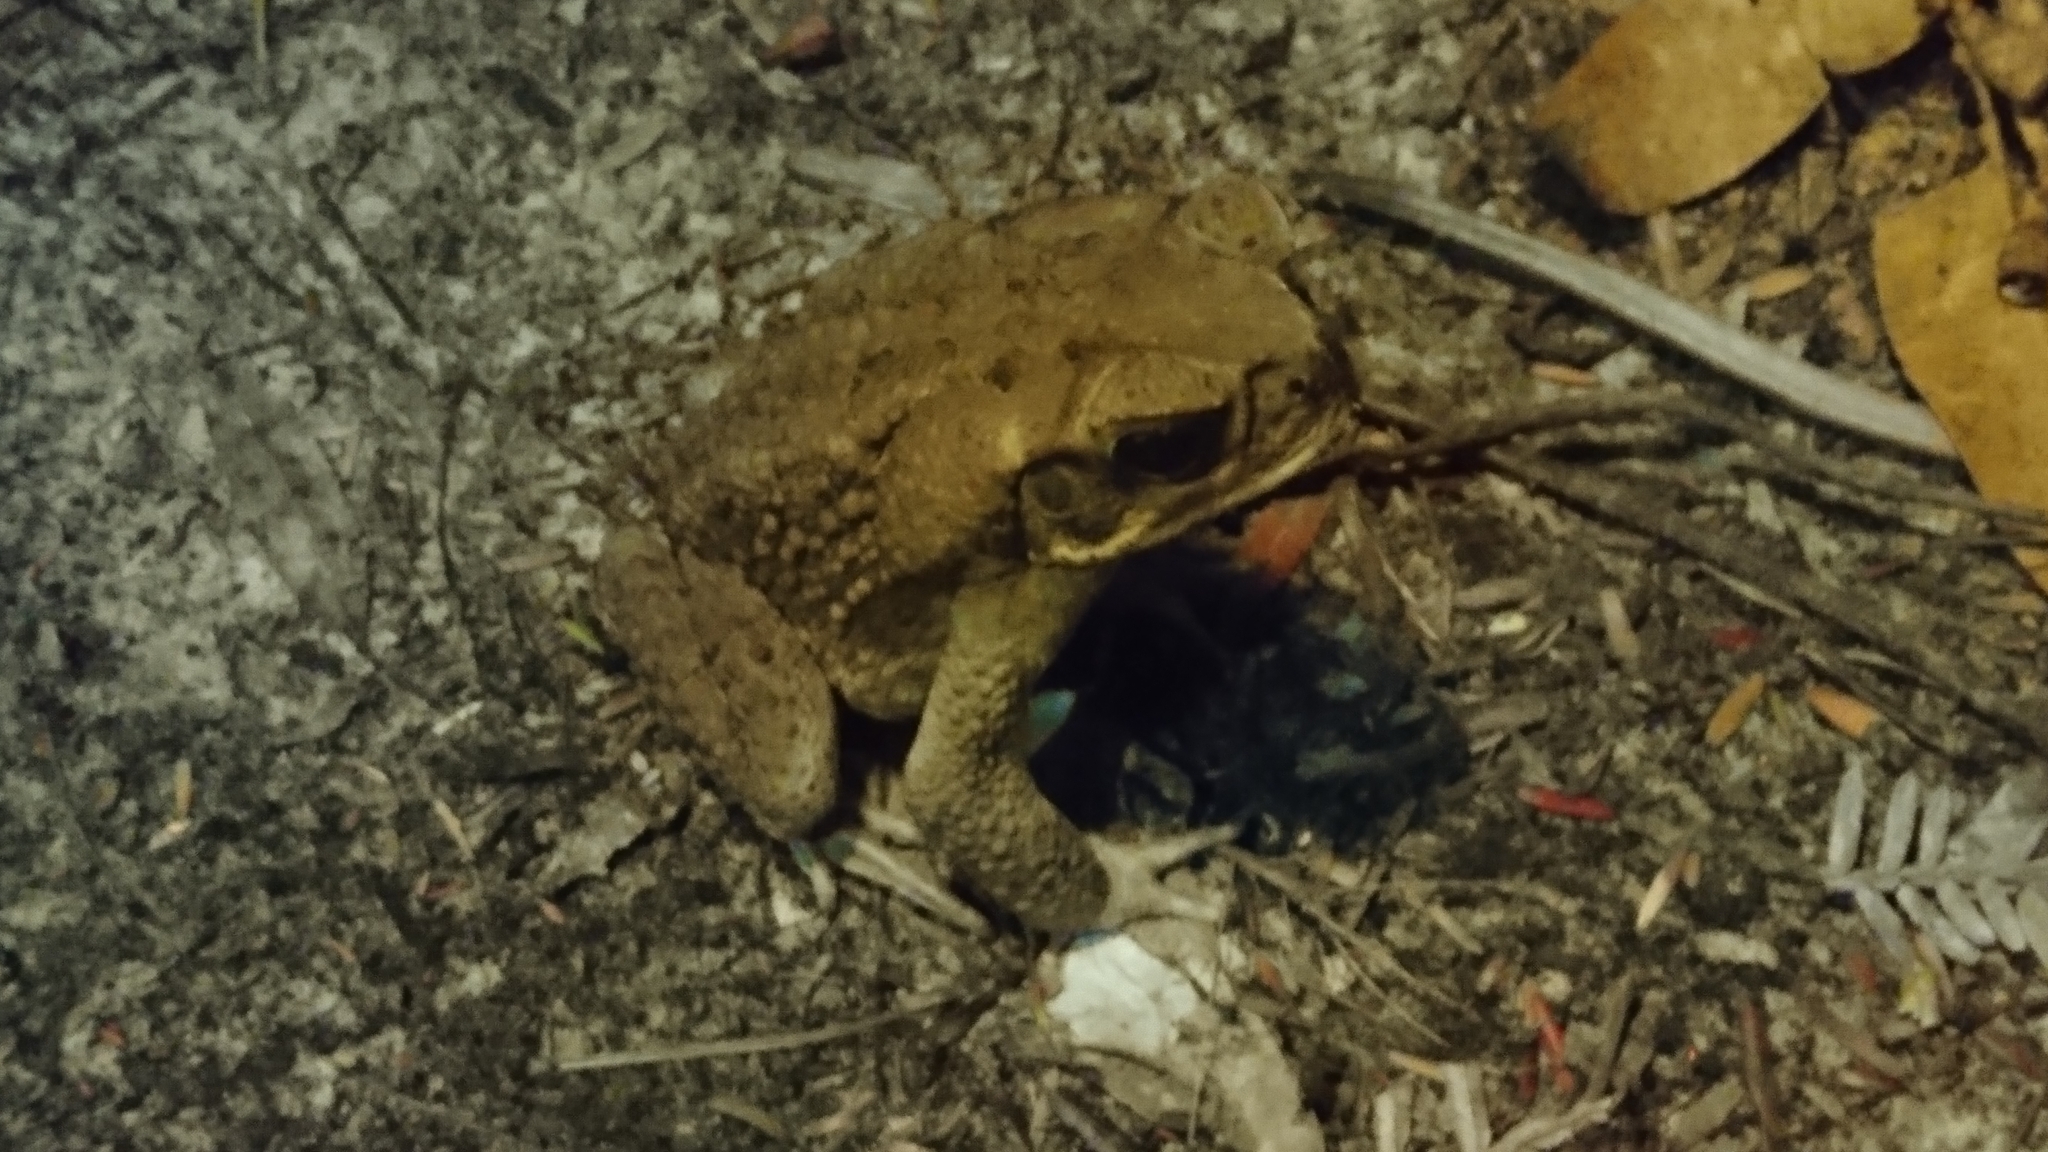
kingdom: Animalia
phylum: Chordata
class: Amphibia
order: Anura
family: Bufonidae
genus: Rhinella
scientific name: Rhinella marina
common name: Cane toad
